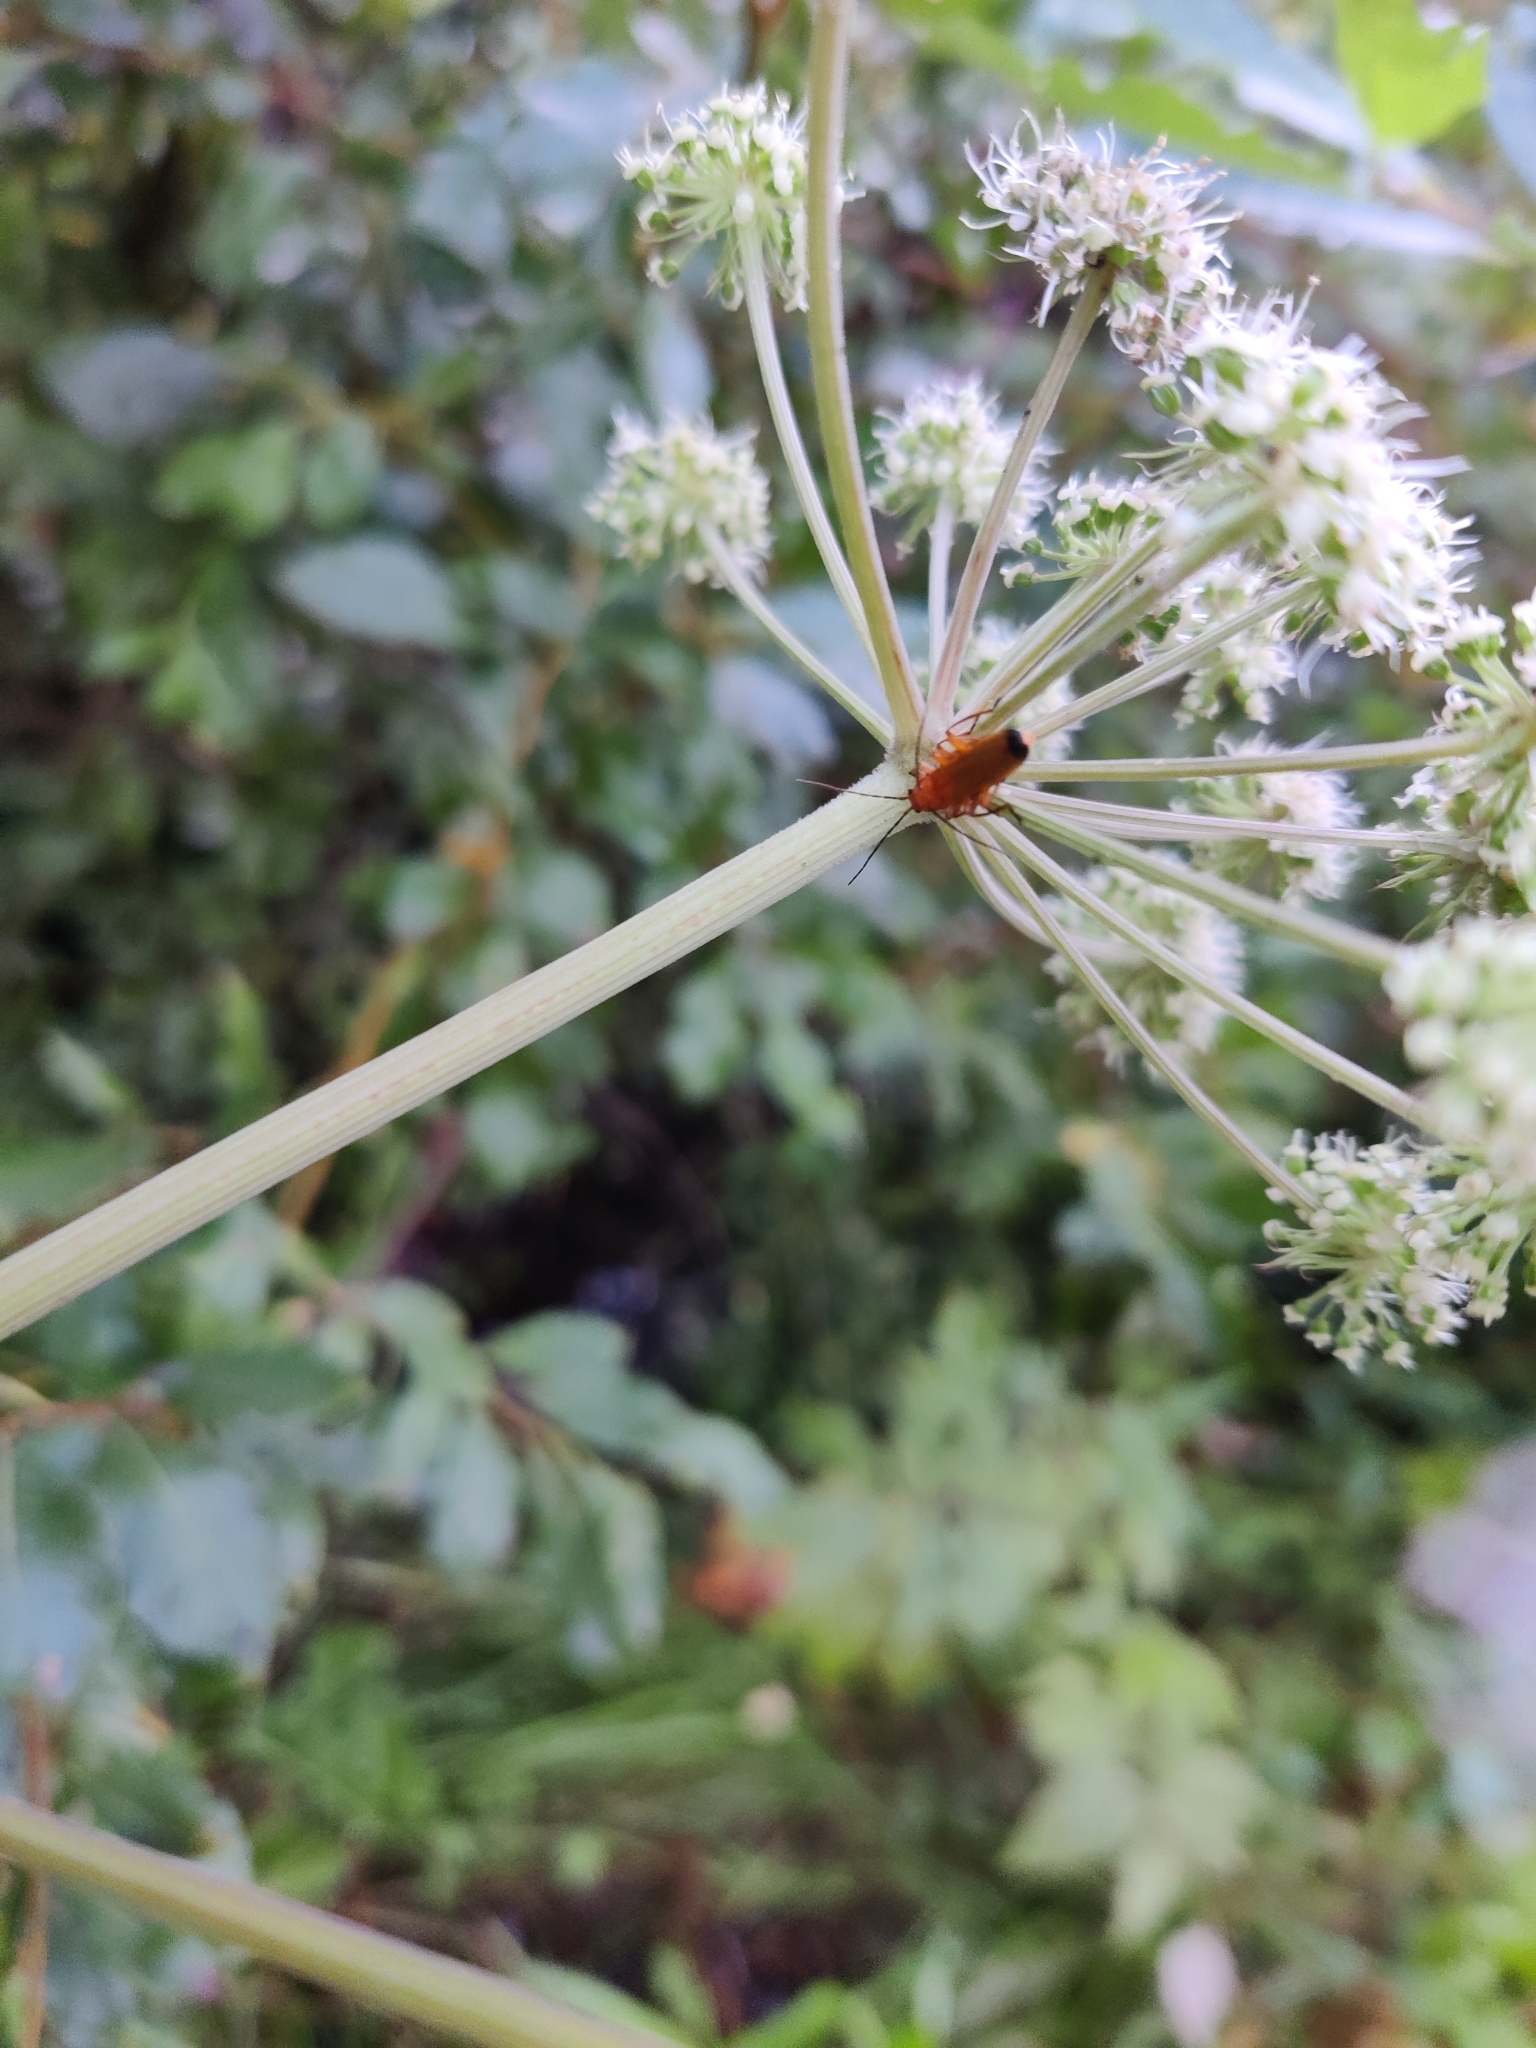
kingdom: Animalia
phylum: Arthropoda
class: Insecta
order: Coleoptera
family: Cantharidae
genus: Rhagonycha
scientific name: Rhagonycha fulva
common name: Common red soldier beetle
